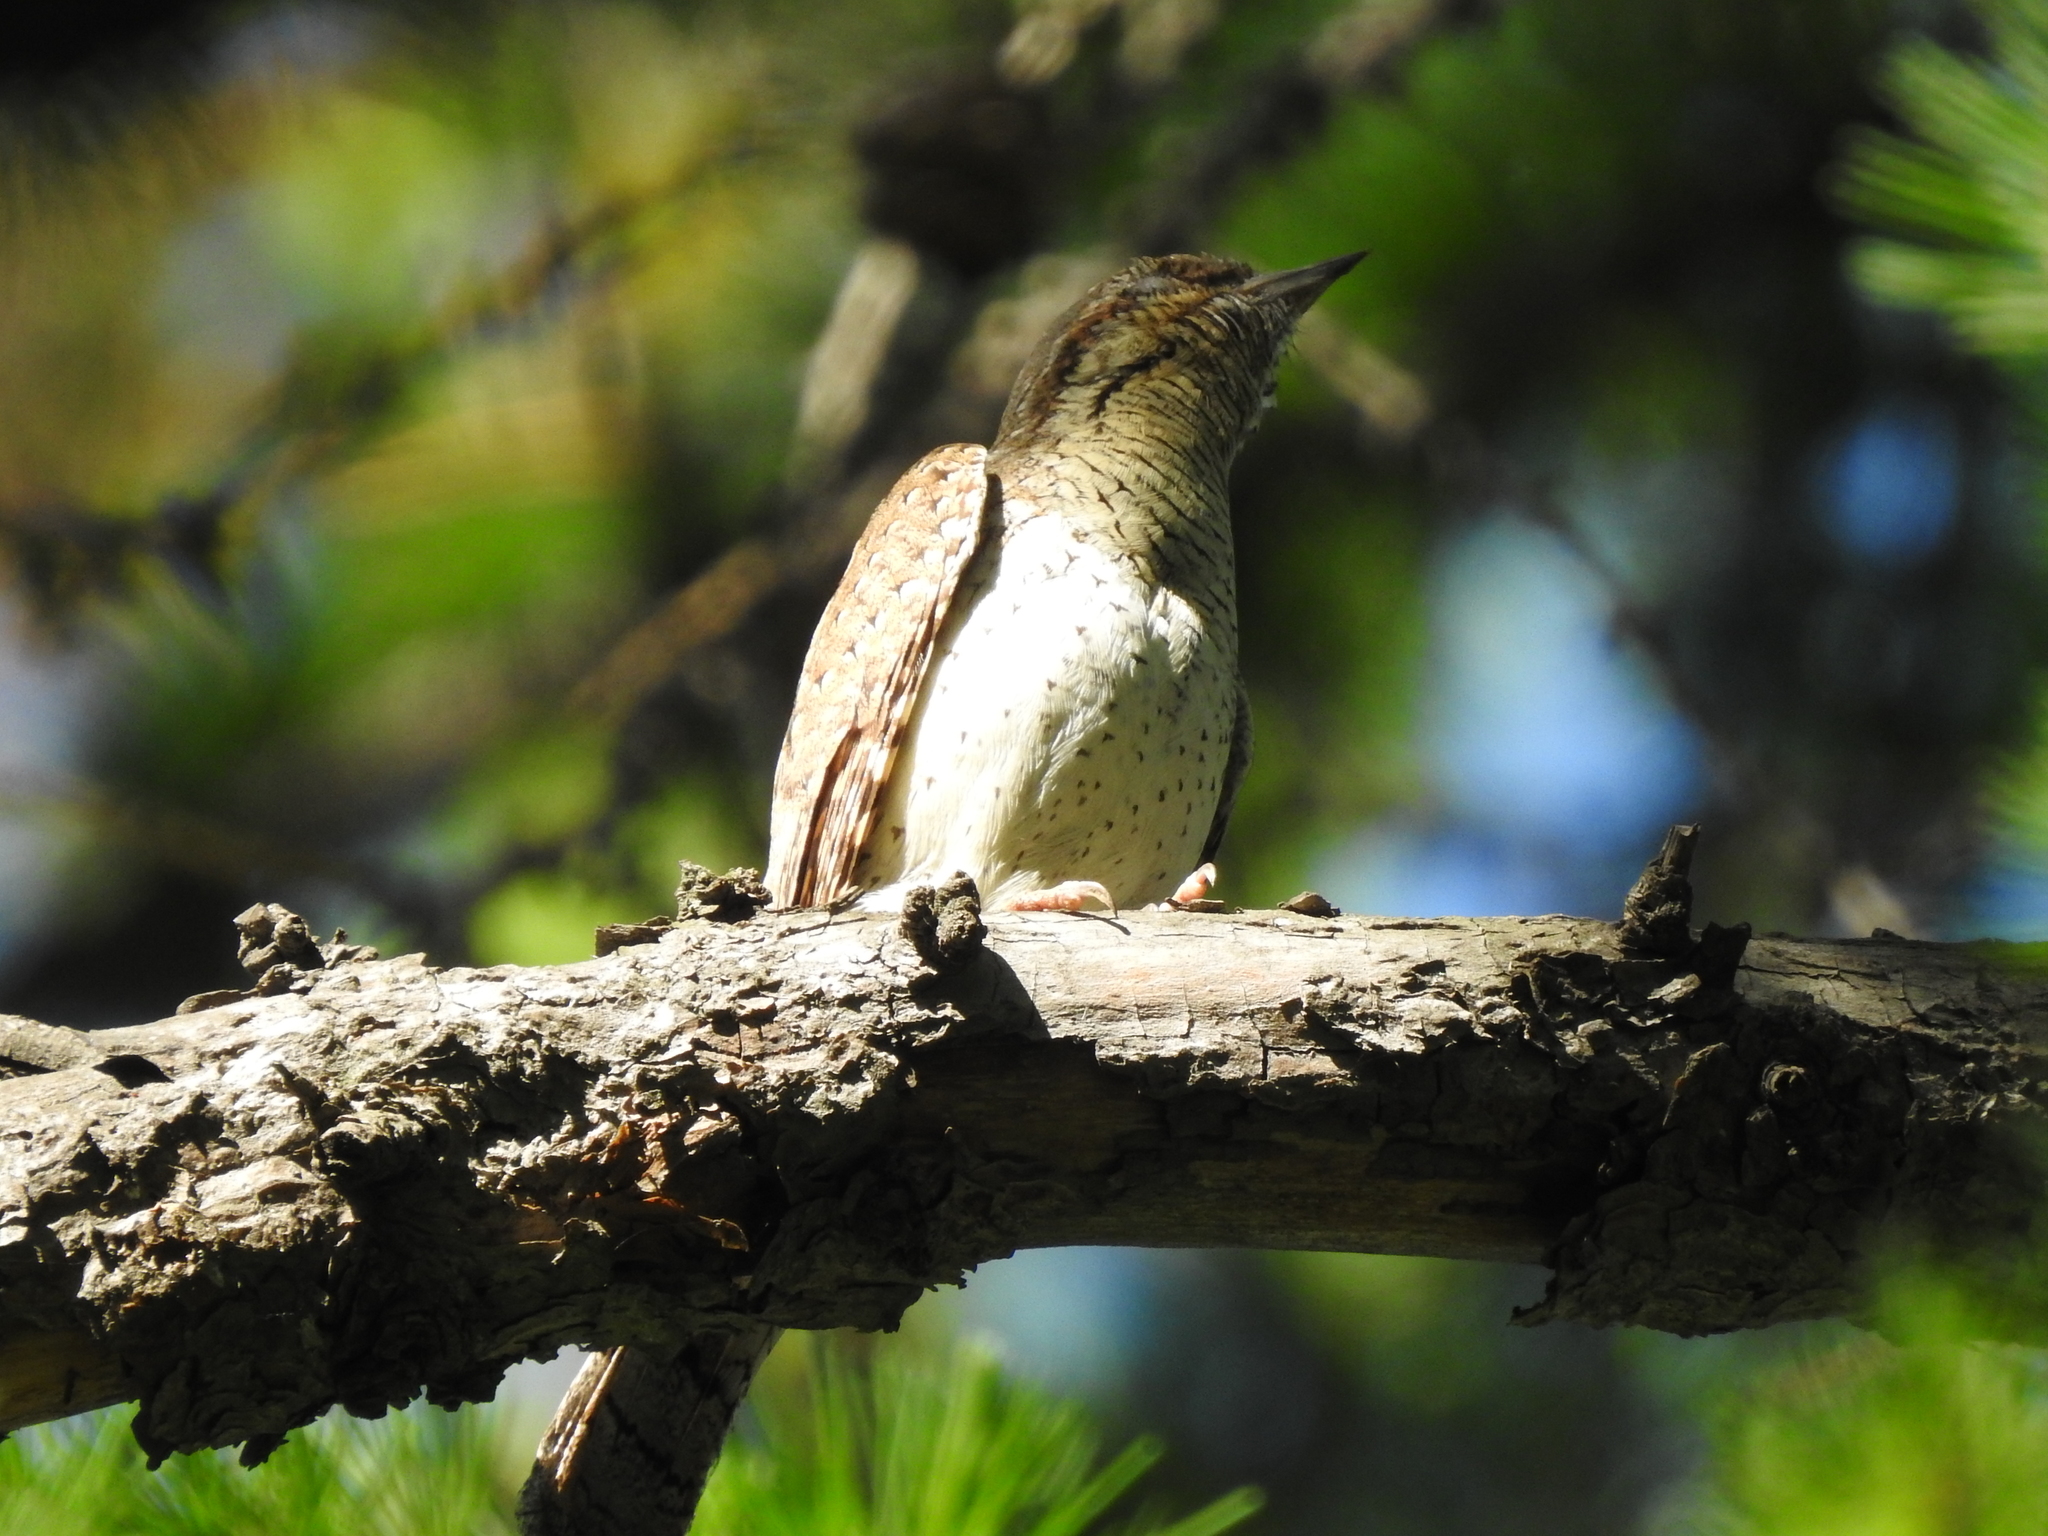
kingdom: Animalia
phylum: Chordata
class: Aves
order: Piciformes
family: Picidae
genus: Jynx
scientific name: Jynx torquilla
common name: Eurasian wryneck
